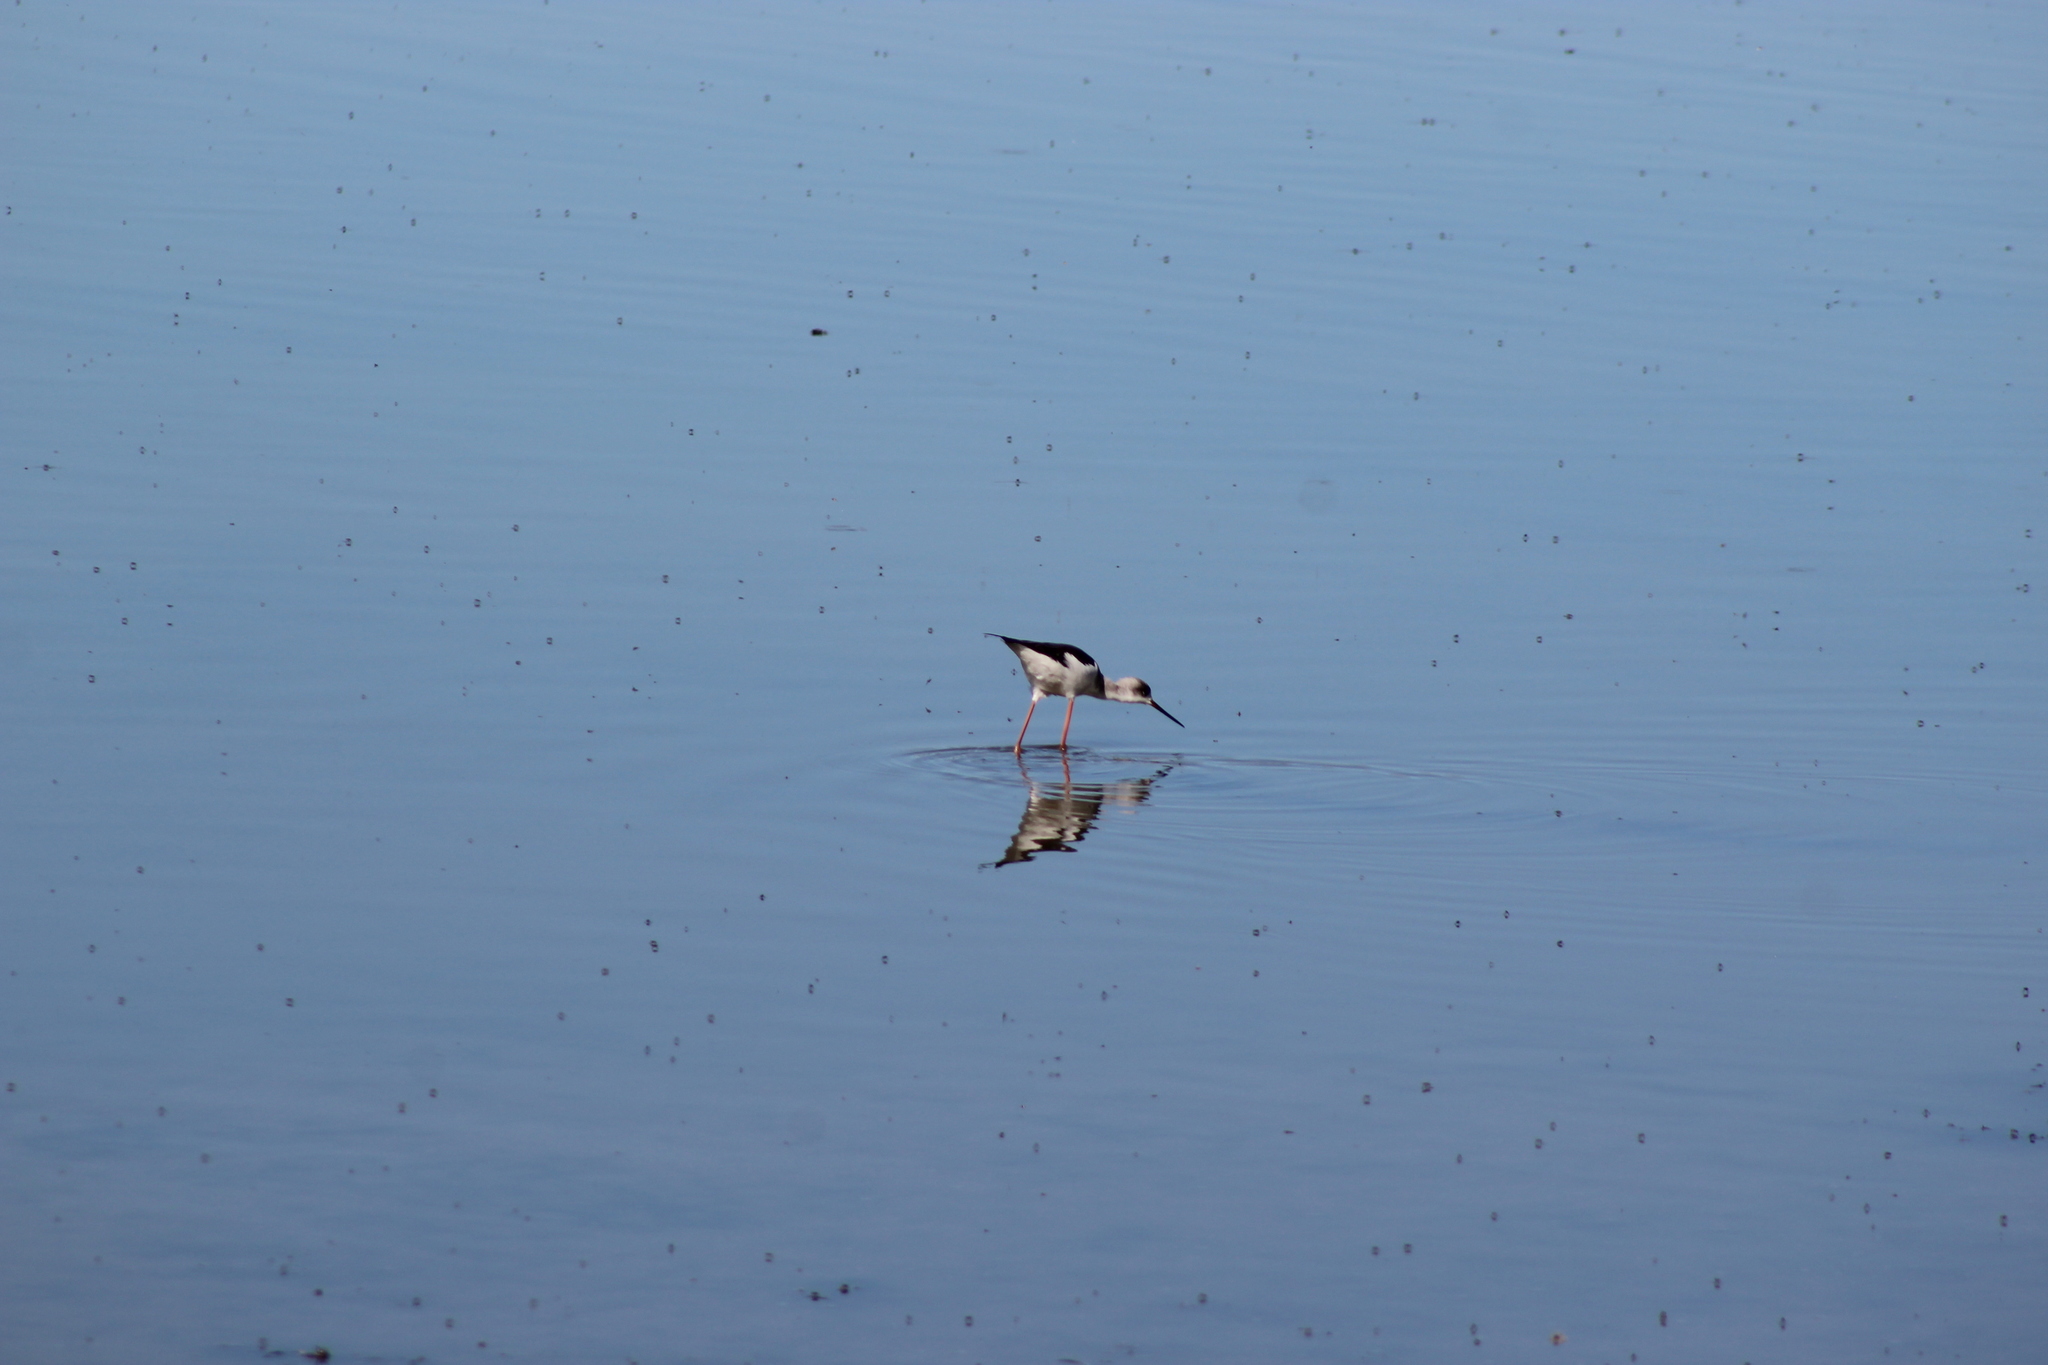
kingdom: Animalia
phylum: Chordata
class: Aves
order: Charadriiformes
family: Recurvirostridae
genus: Himantopus
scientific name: Himantopus himantopus
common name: Black-winged stilt
